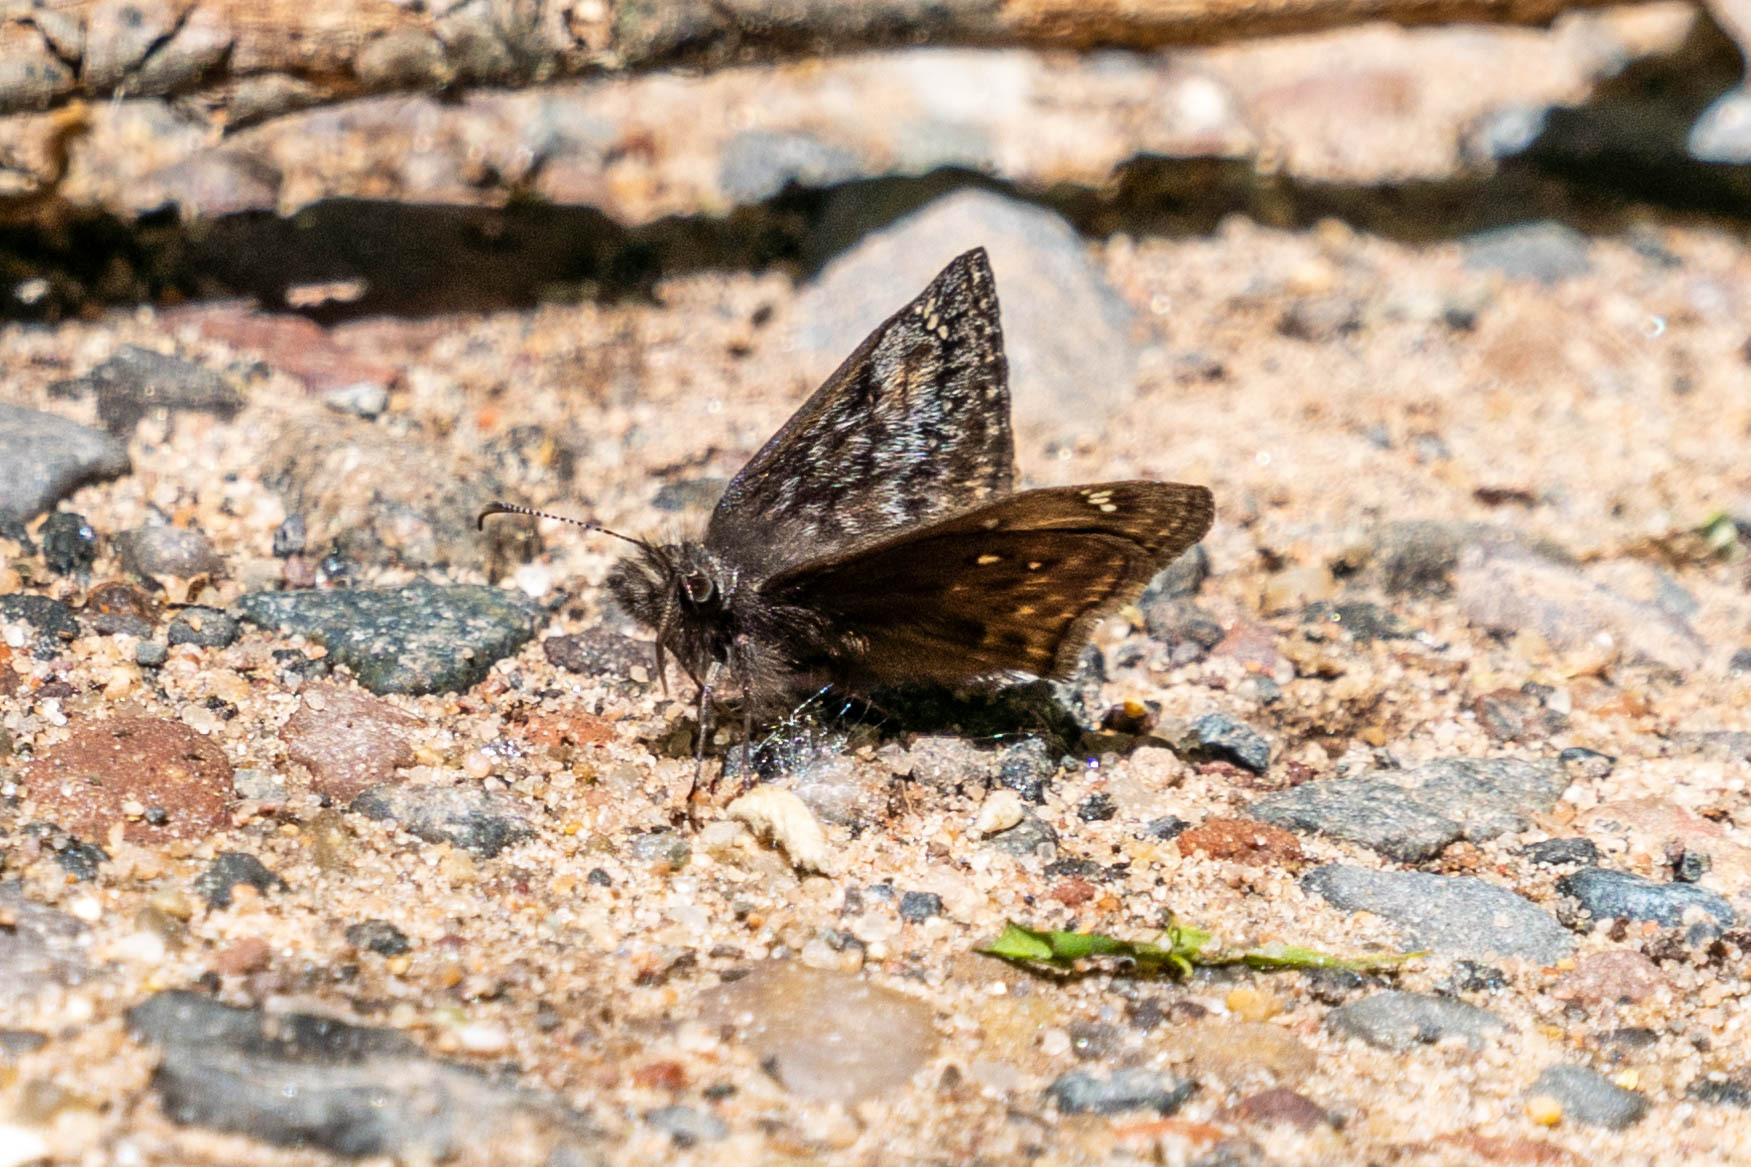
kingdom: Animalia
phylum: Arthropoda
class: Insecta
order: Lepidoptera
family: Hesperiidae
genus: Erynnis
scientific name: Erynnis juvenalis
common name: Juvenal's duskywing
